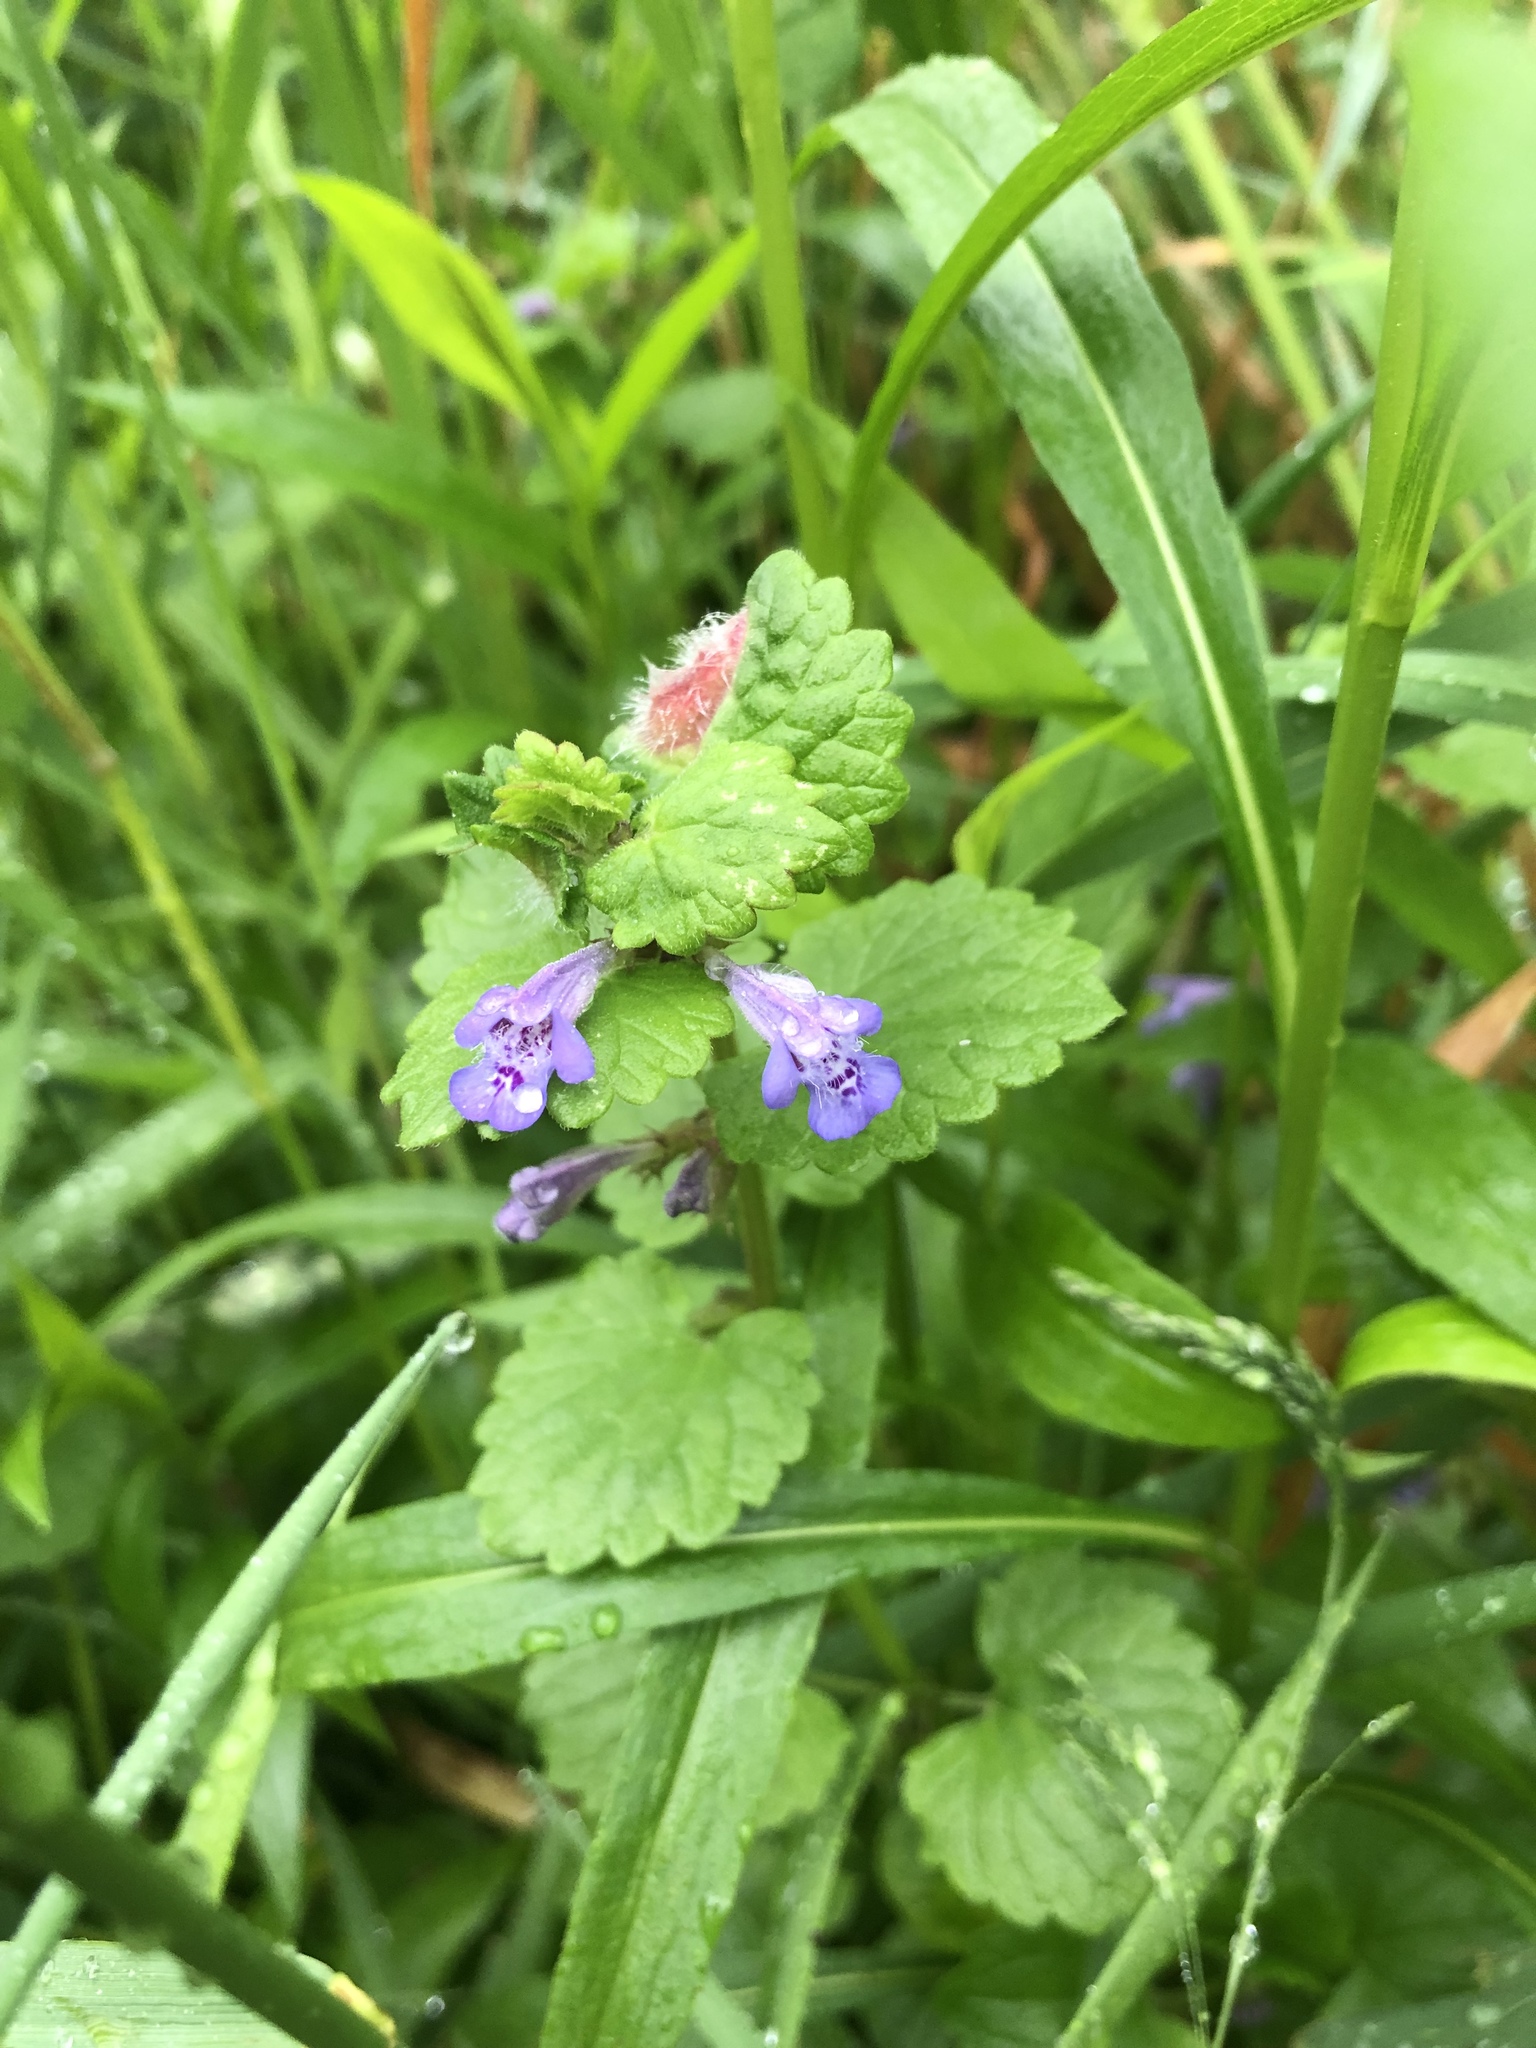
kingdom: Plantae
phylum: Tracheophyta
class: Magnoliopsida
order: Lamiales
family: Lamiaceae
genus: Glechoma
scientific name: Glechoma hederacea
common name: Ground ivy
